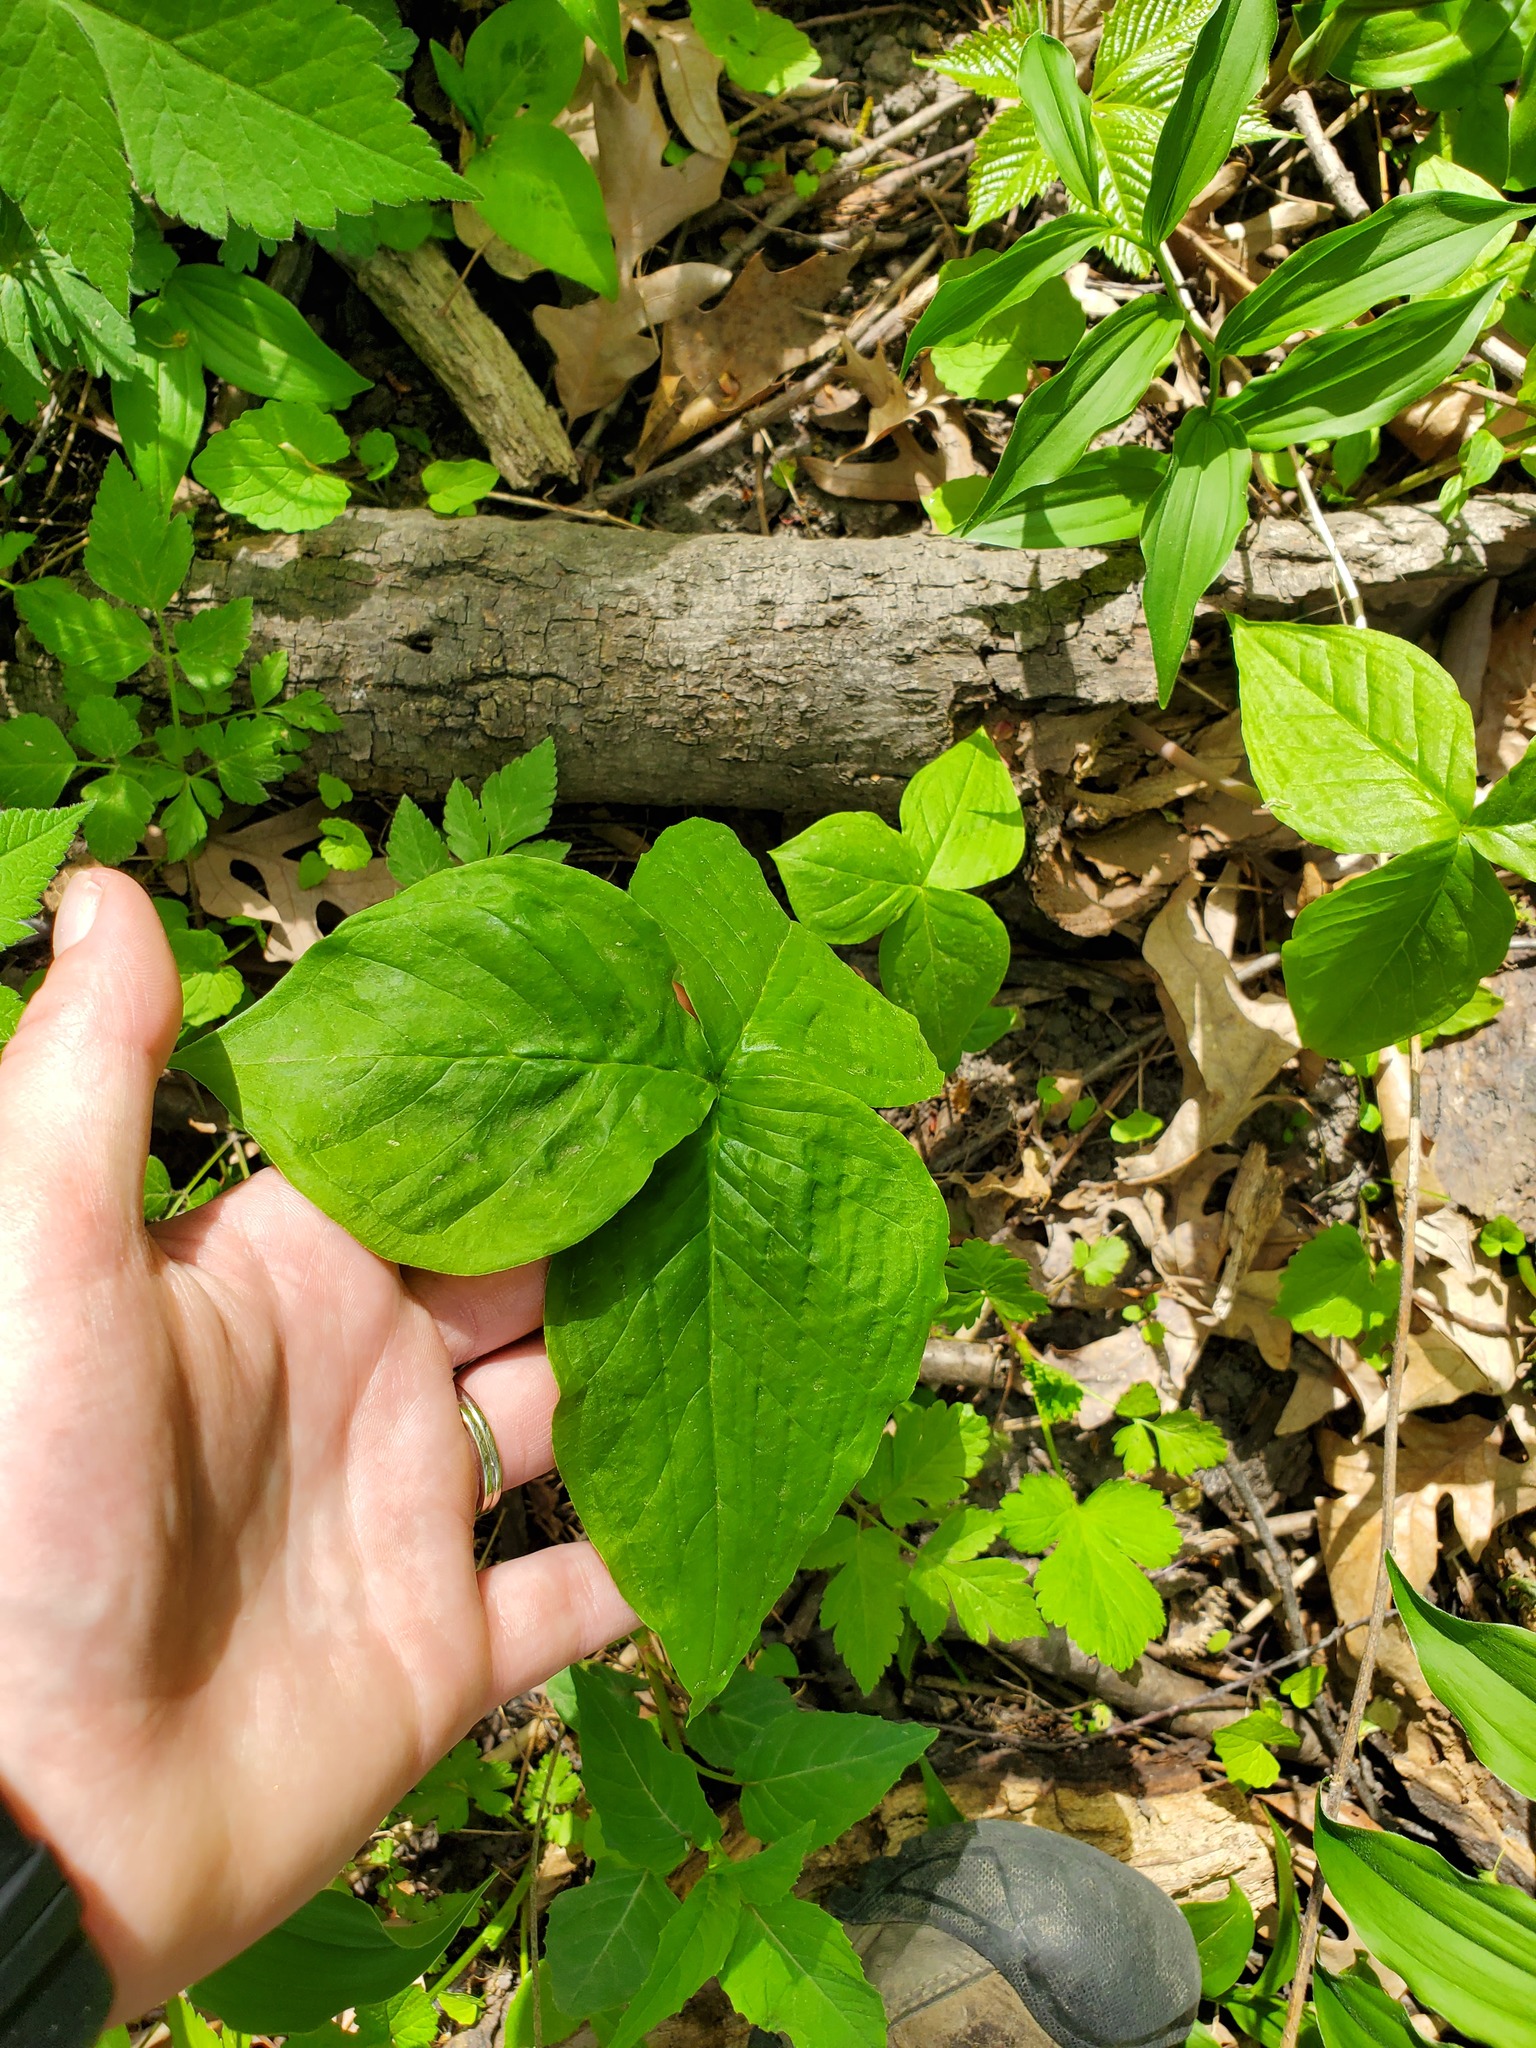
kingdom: Plantae
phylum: Tracheophyta
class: Liliopsida
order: Alismatales
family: Araceae
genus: Arisaema
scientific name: Arisaema triphyllum
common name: Jack-in-the-pulpit
